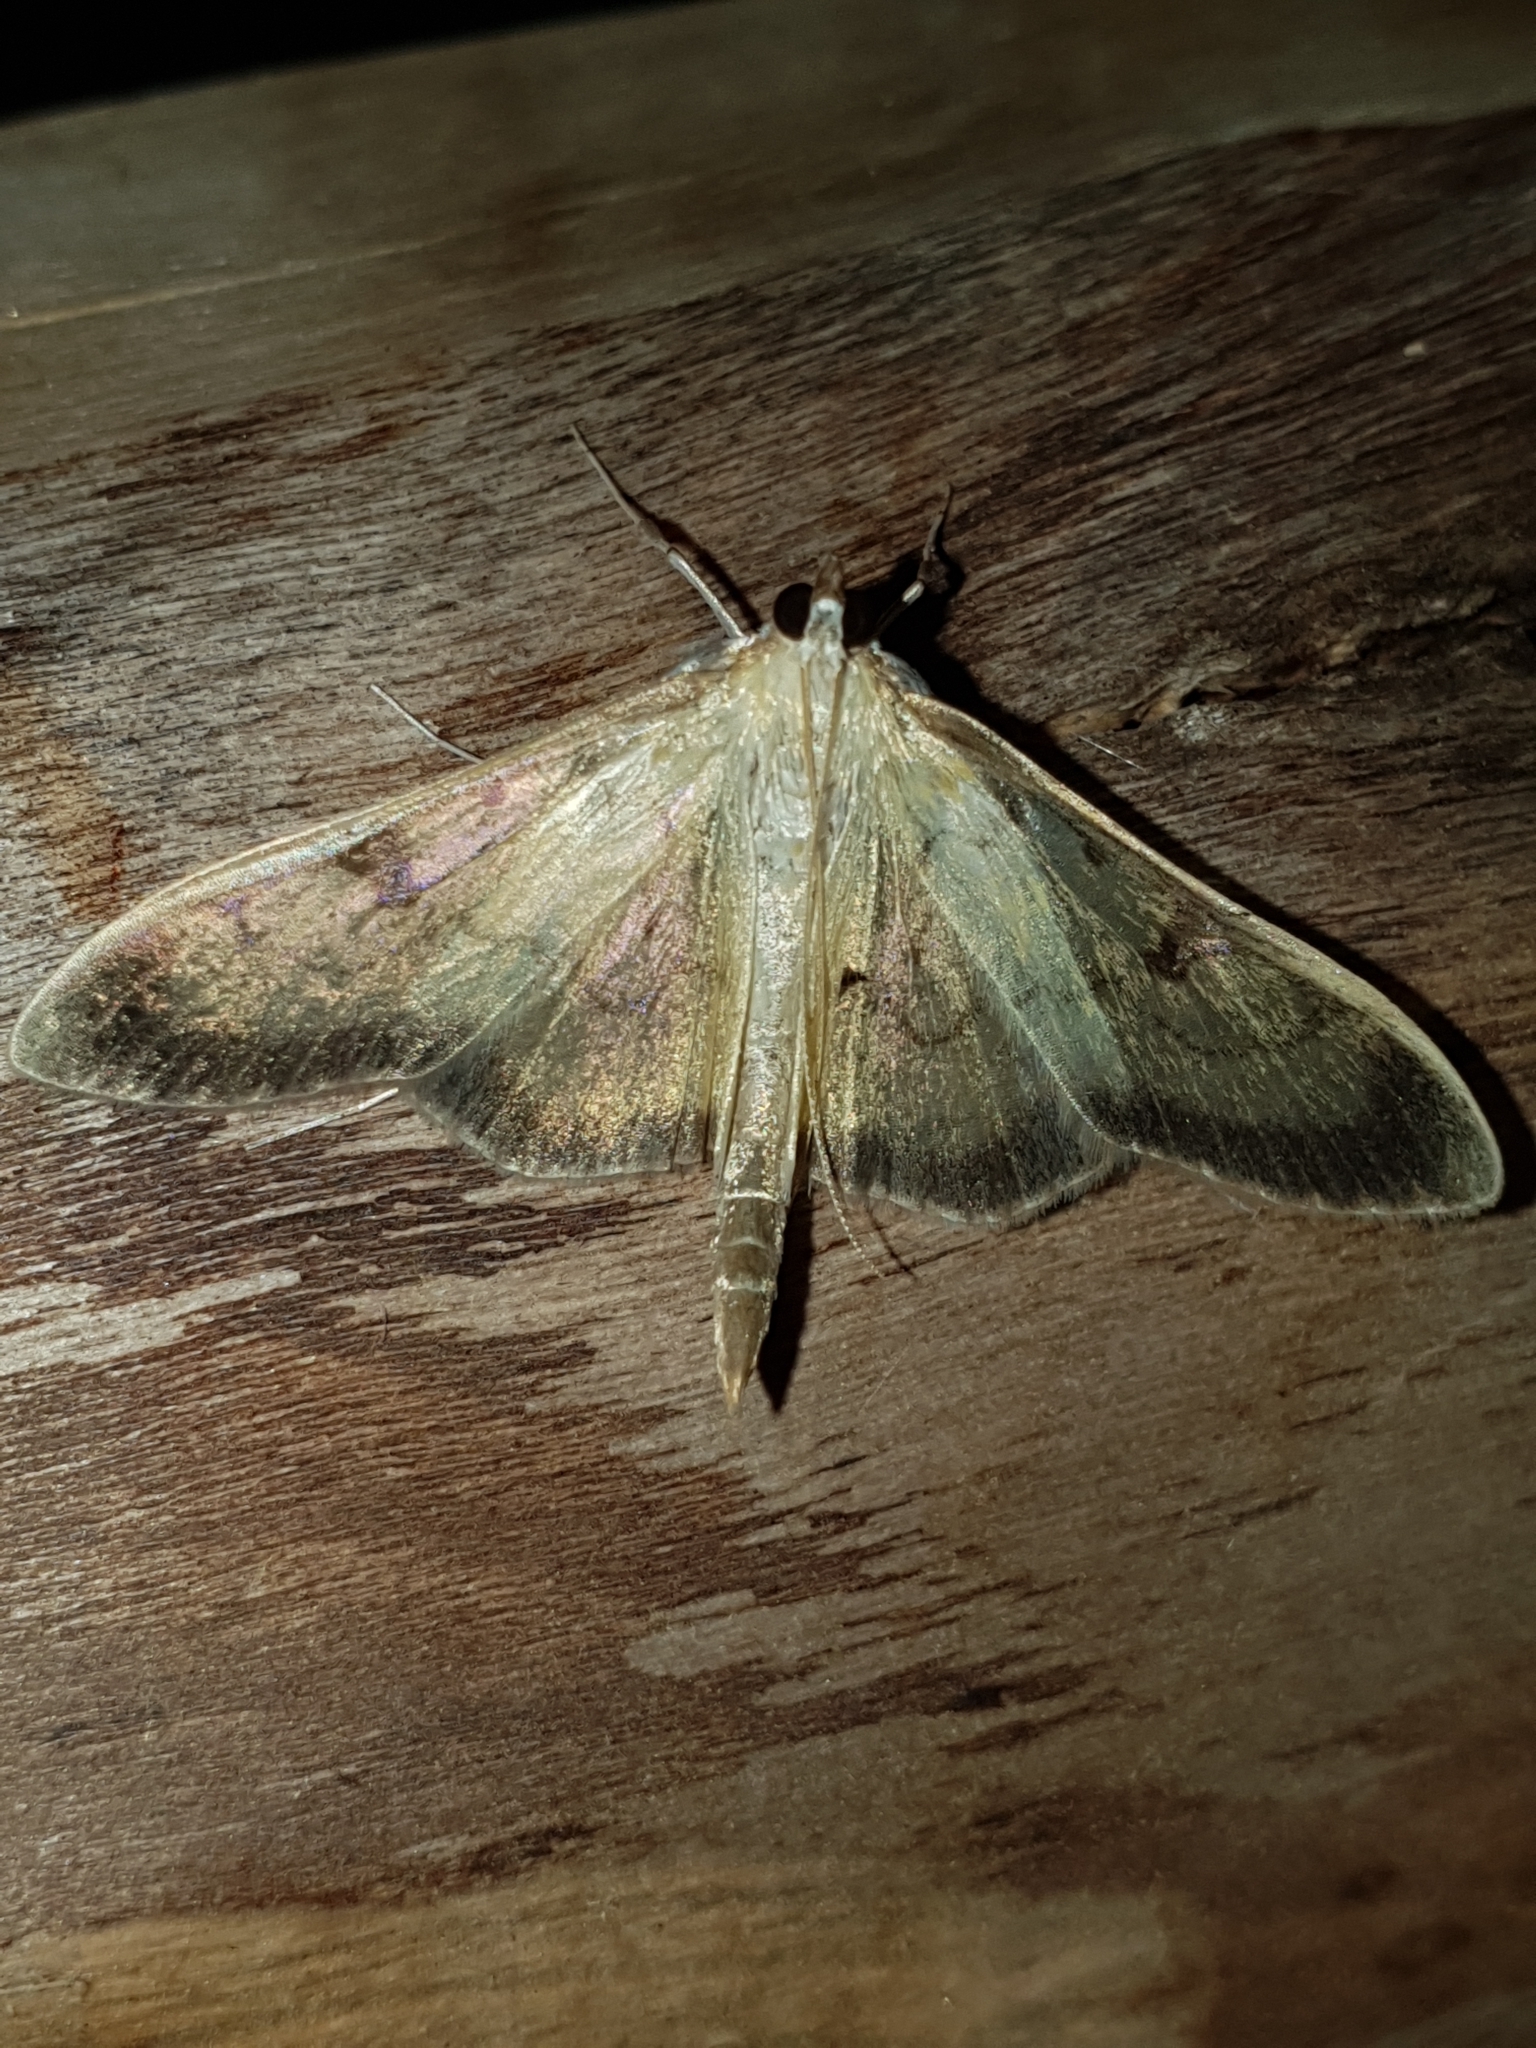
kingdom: Animalia
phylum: Arthropoda
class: Insecta
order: Lepidoptera
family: Crambidae
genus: Paratalanta
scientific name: Paratalanta ussurialis
